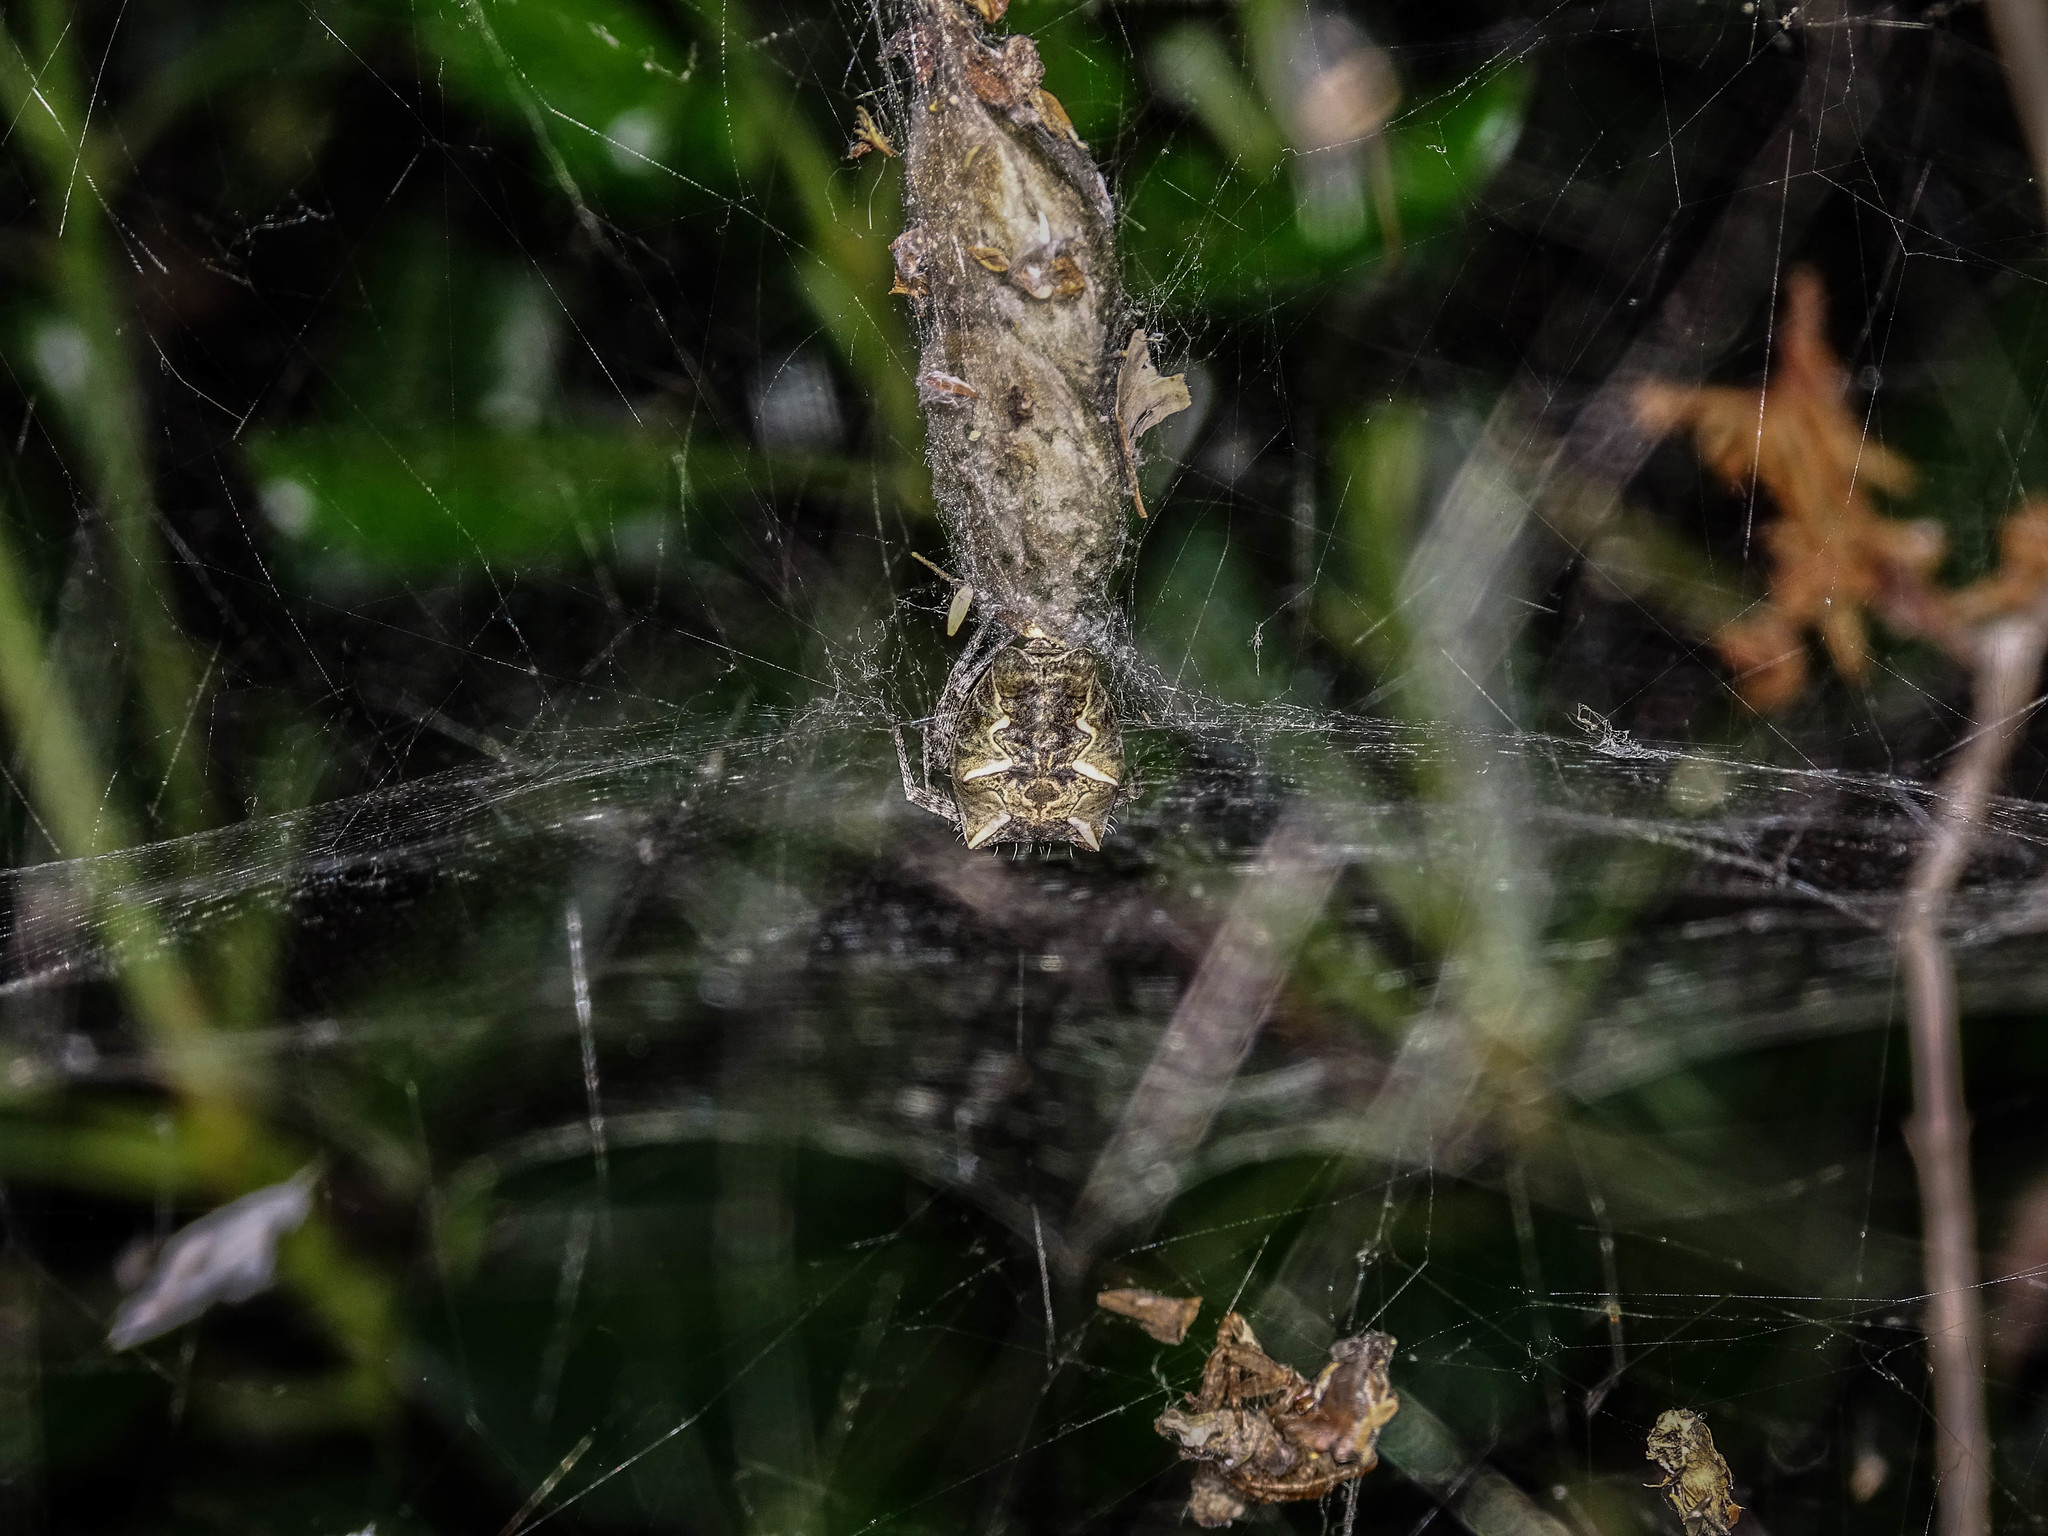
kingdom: Animalia
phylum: Arthropoda
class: Arachnida
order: Araneae
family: Araneidae
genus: Cyrtophora
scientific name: Cyrtophora citricola
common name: Orb weavers
